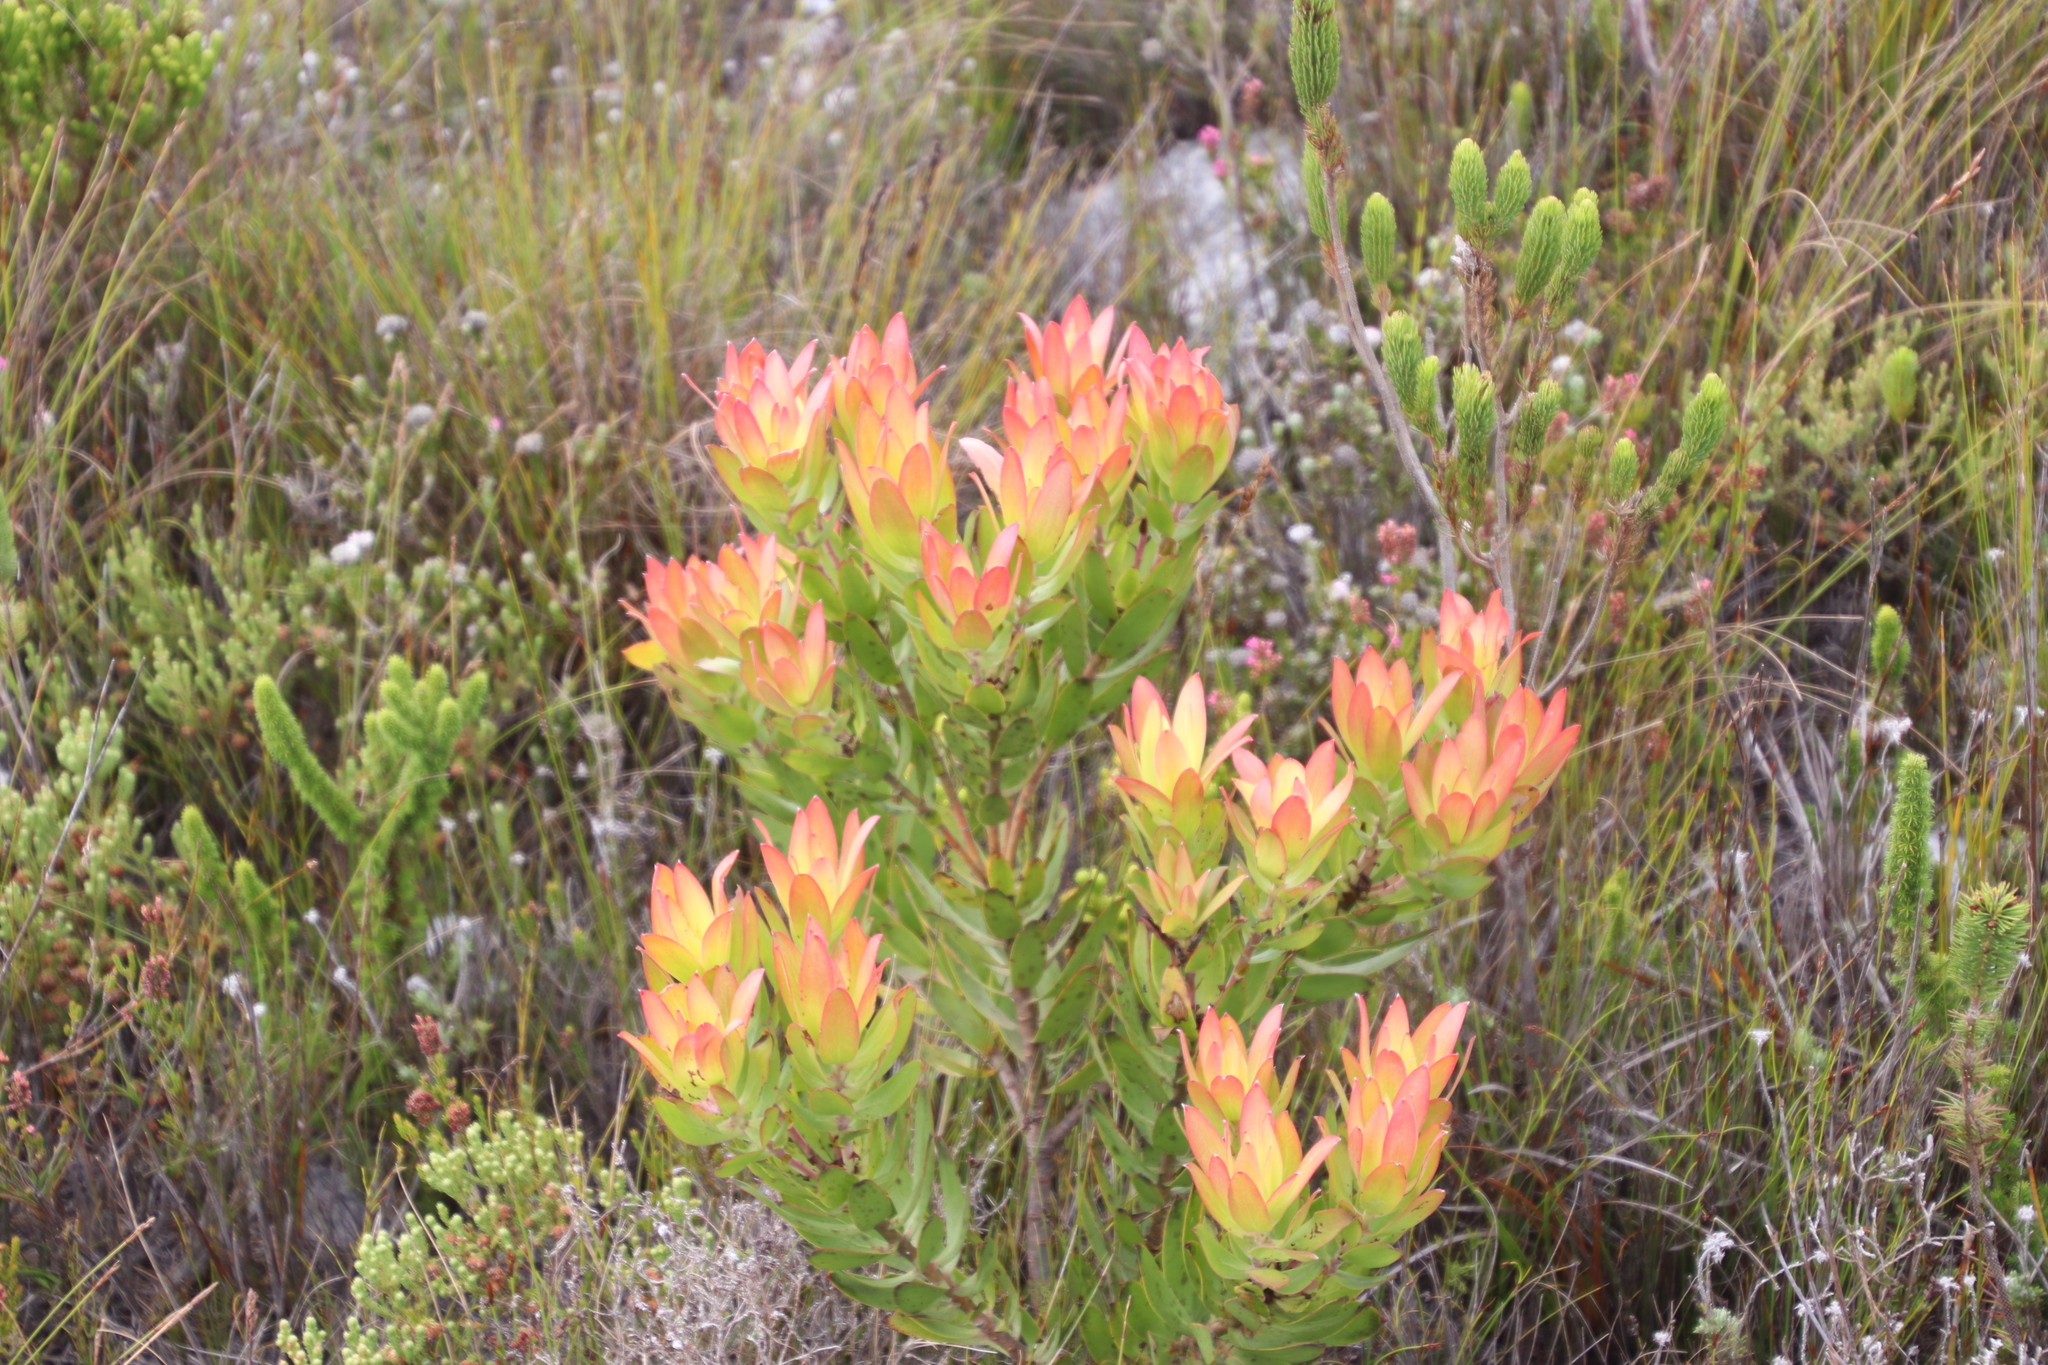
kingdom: Plantae
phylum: Tracheophyta
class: Magnoliopsida
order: Proteales
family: Proteaceae
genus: Leucadendron
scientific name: Leucadendron gandogeri
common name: Broad-leaf conebush
